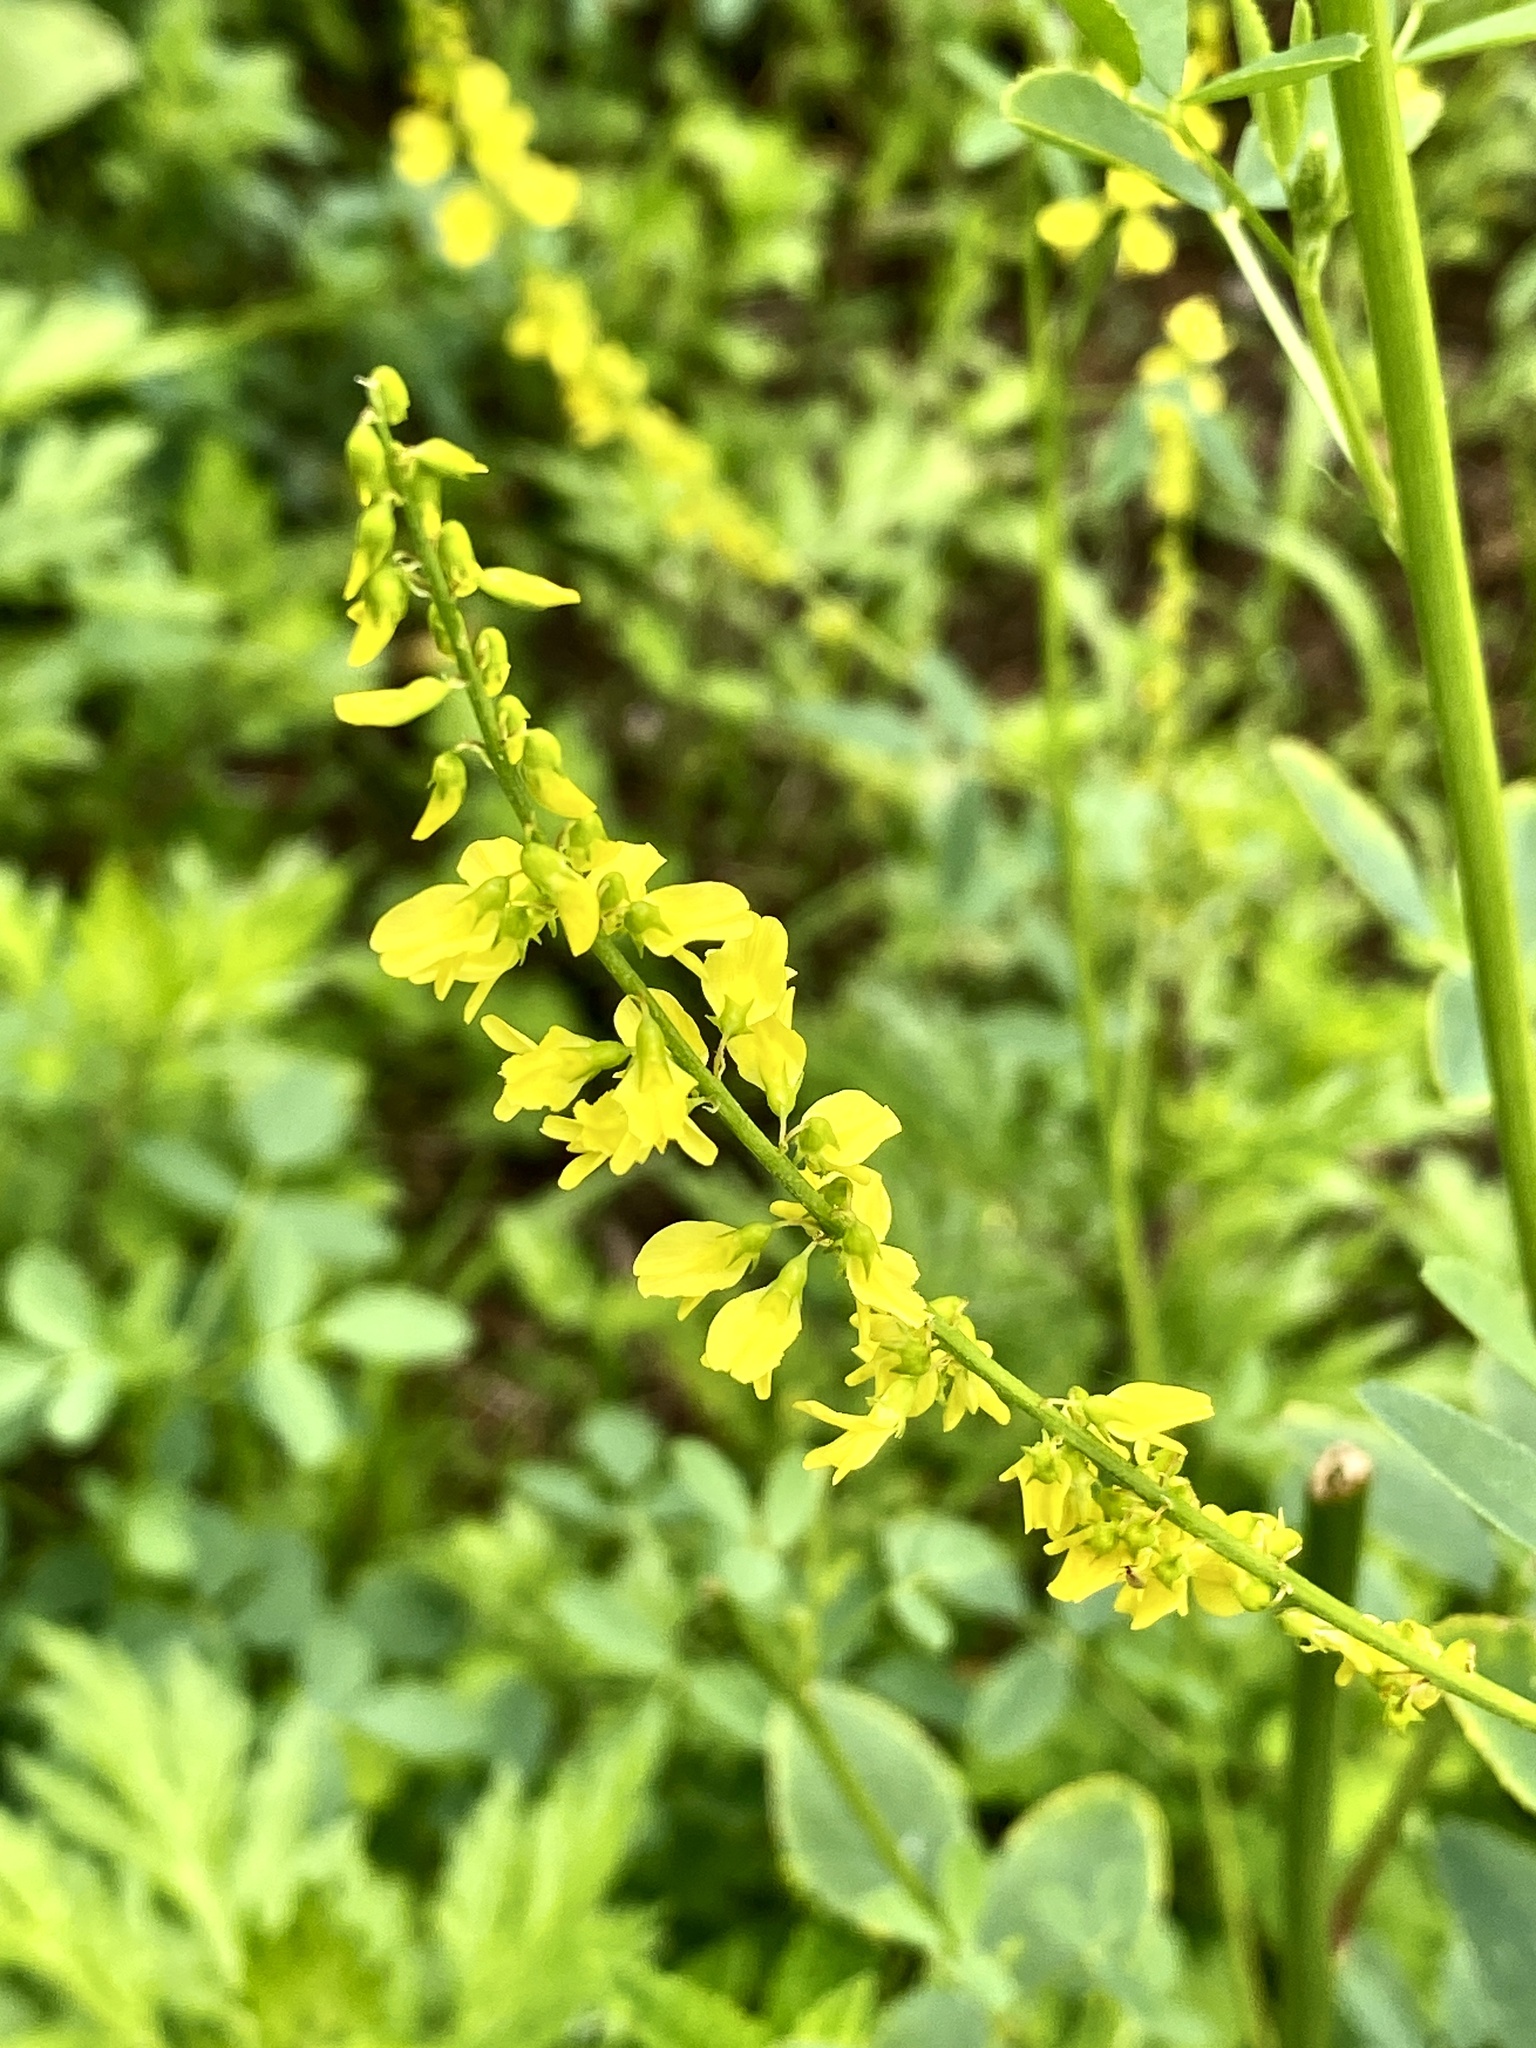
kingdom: Plantae
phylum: Tracheophyta
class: Magnoliopsida
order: Fabales
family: Fabaceae
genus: Melilotus
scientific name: Melilotus officinalis
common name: Sweetclover
